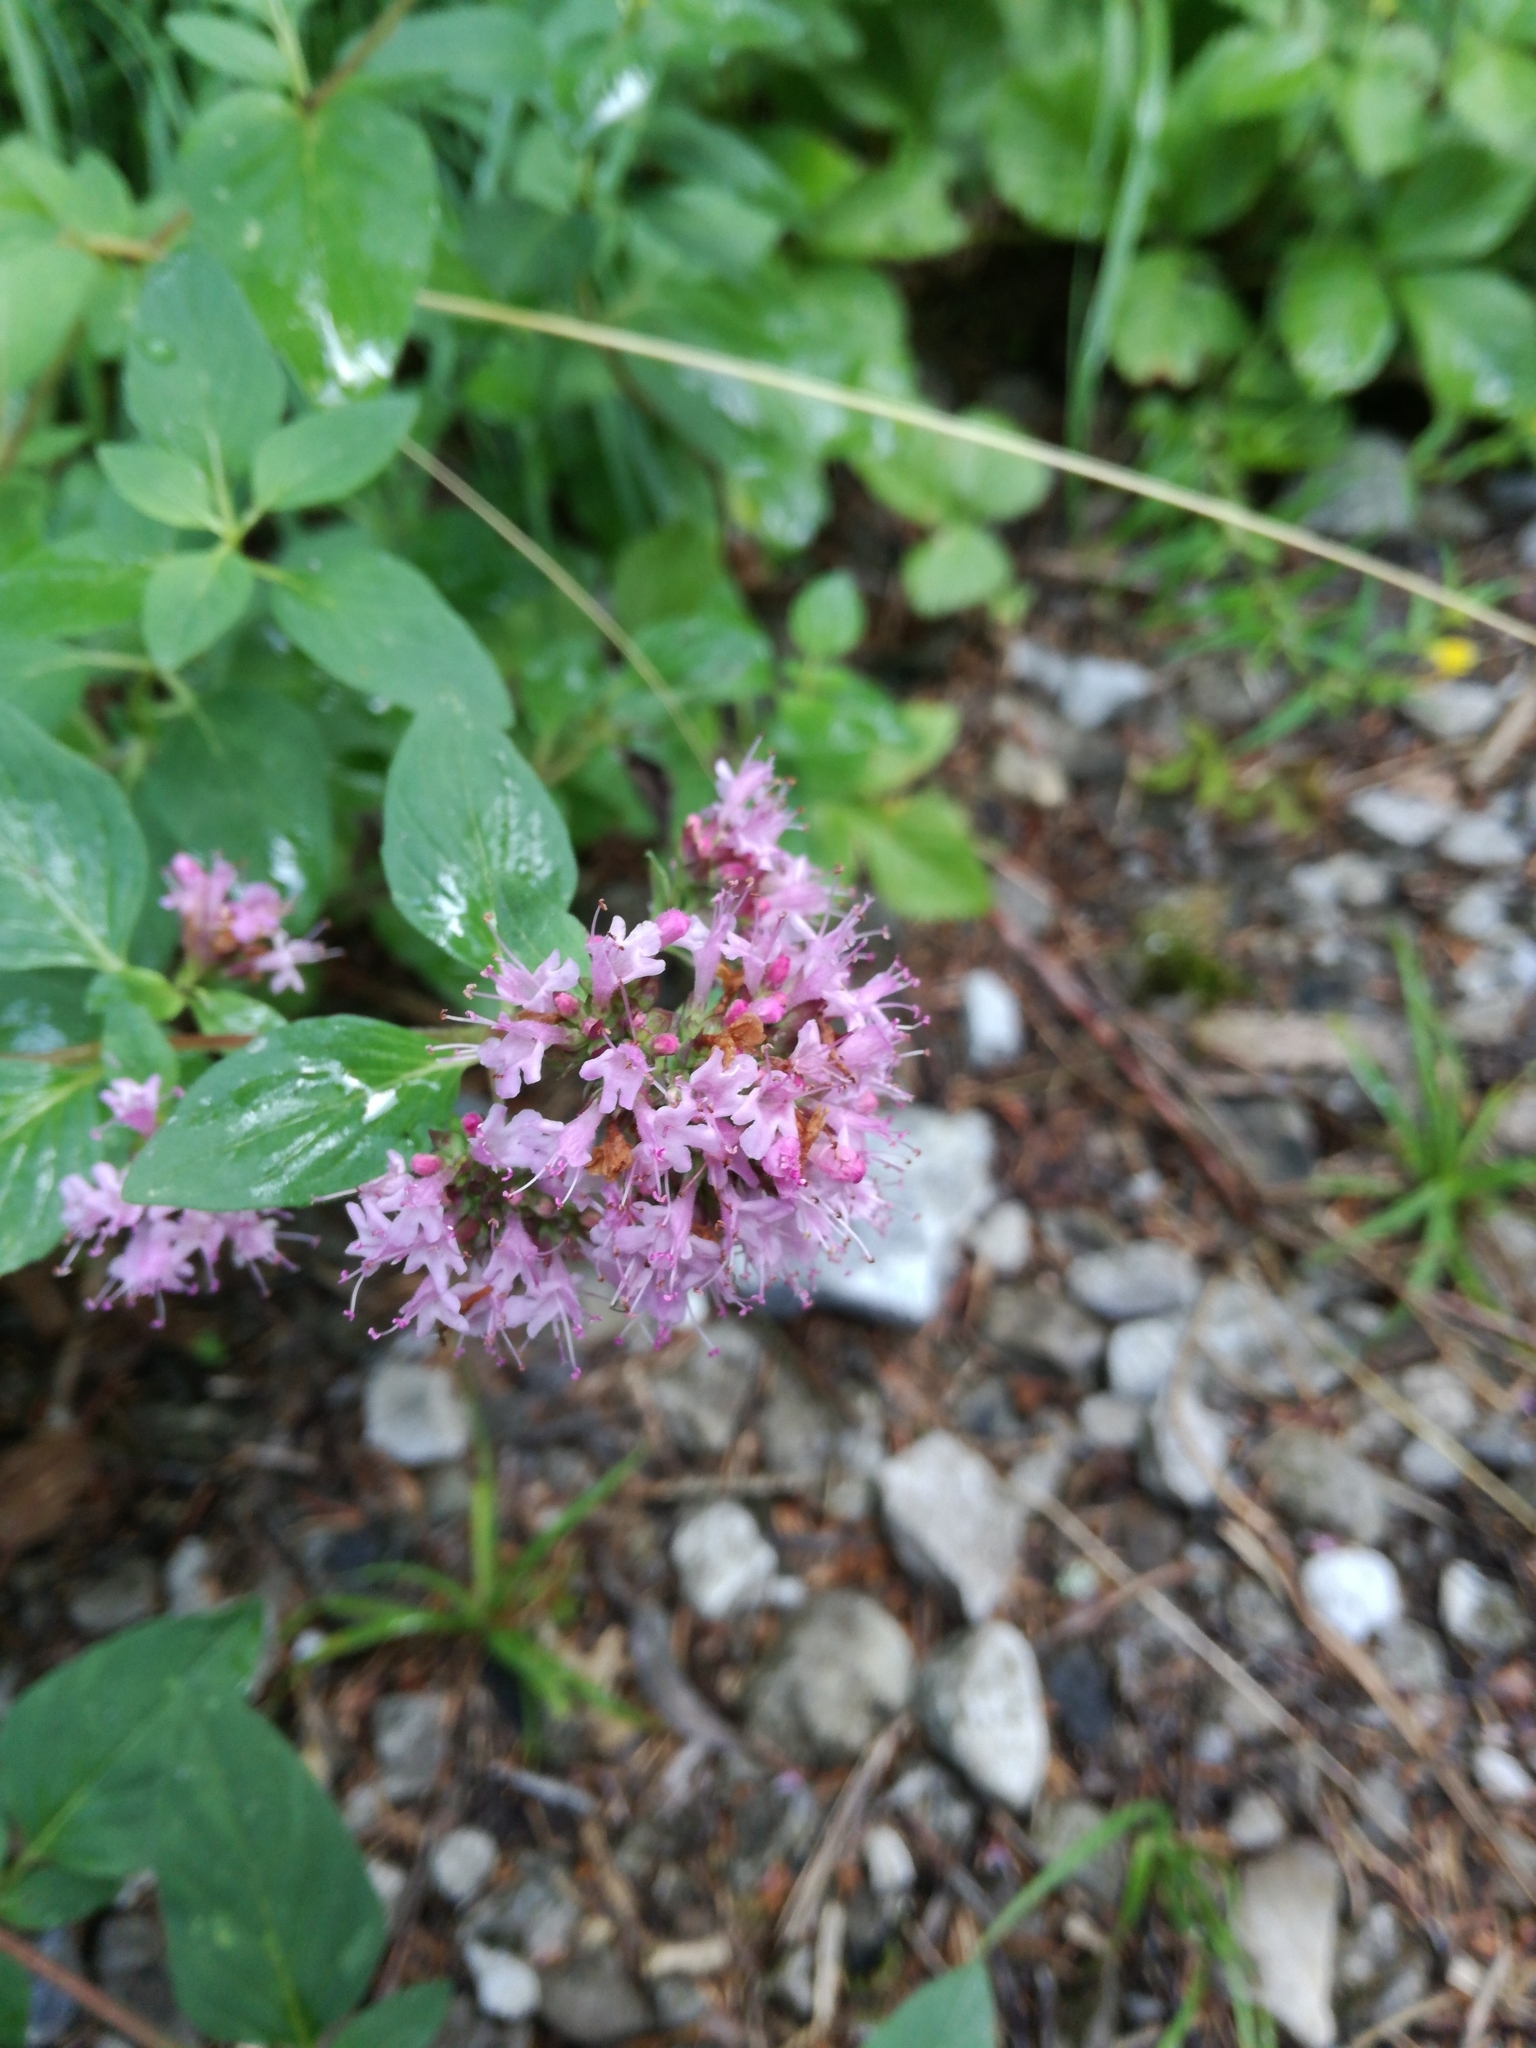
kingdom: Plantae
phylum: Tracheophyta
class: Magnoliopsida
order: Lamiales
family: Lamiaceae
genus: Origanum
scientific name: Origanum vulgare
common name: Wild marjoram
